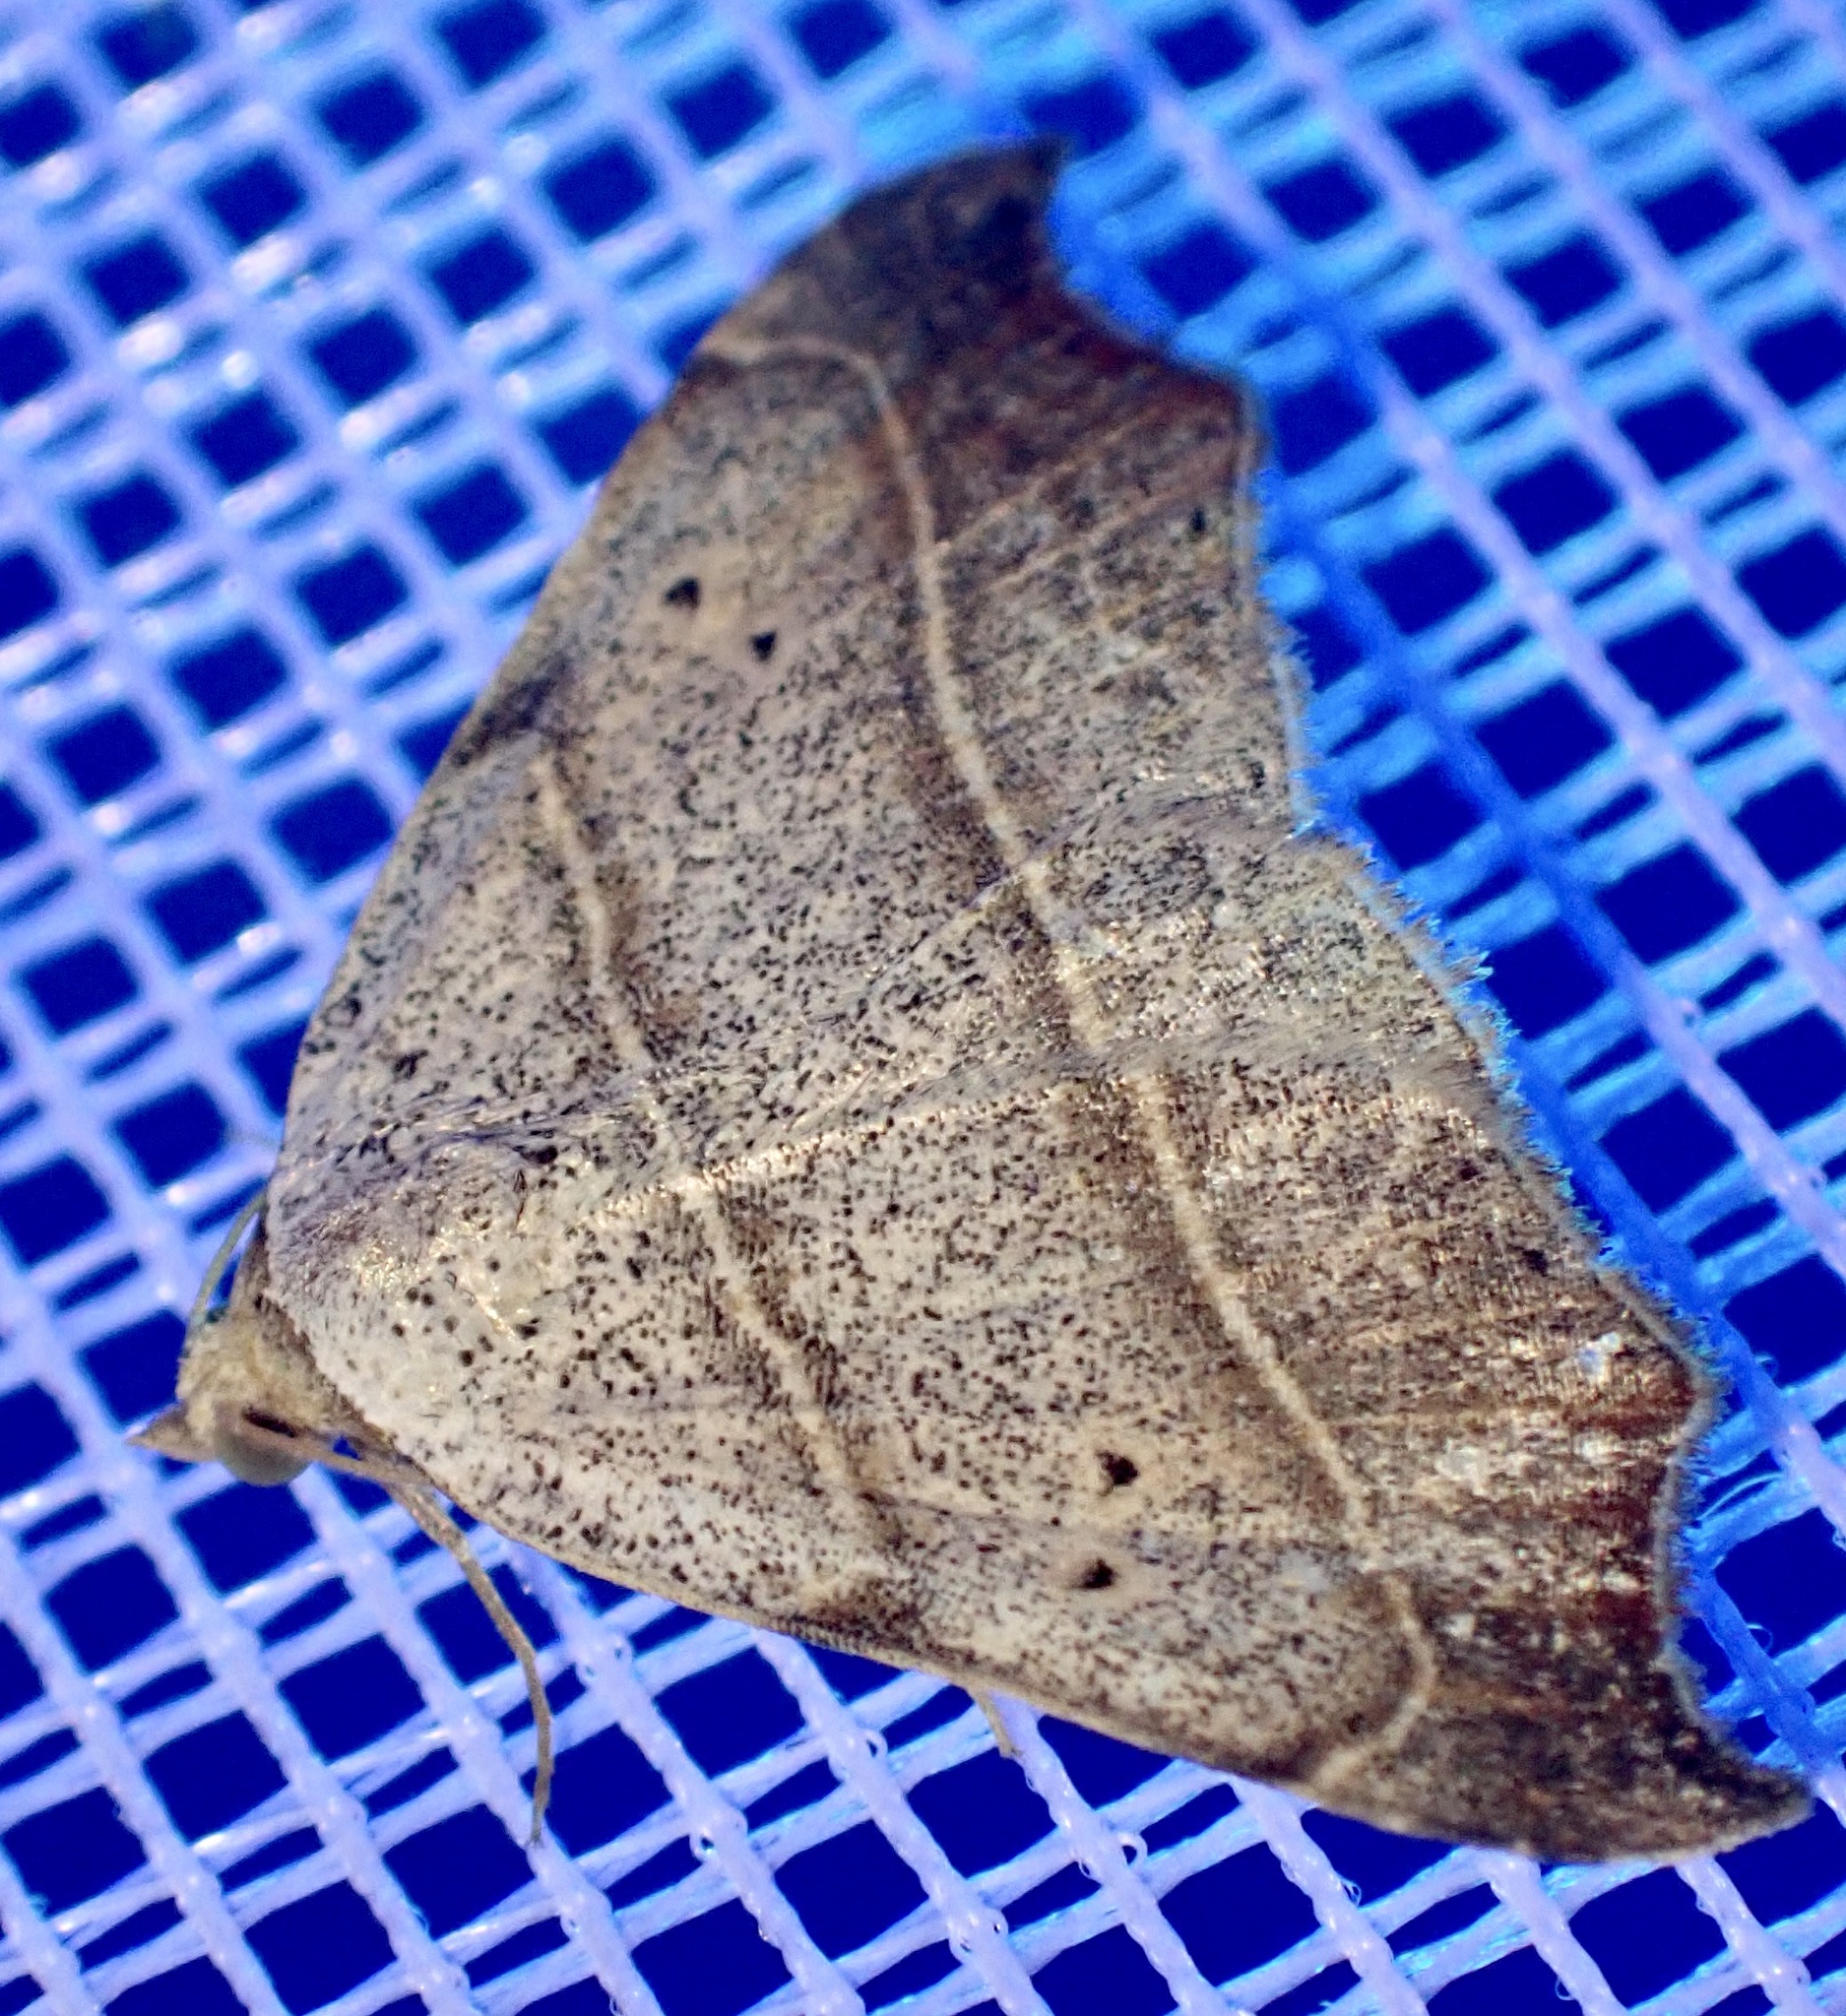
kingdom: Animalia
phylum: Arthropoda
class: Insecta
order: Lepidoptera
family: Erebidae
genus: Laspeyria
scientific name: Laspeyria flexula
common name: Beautiful hook-tip
